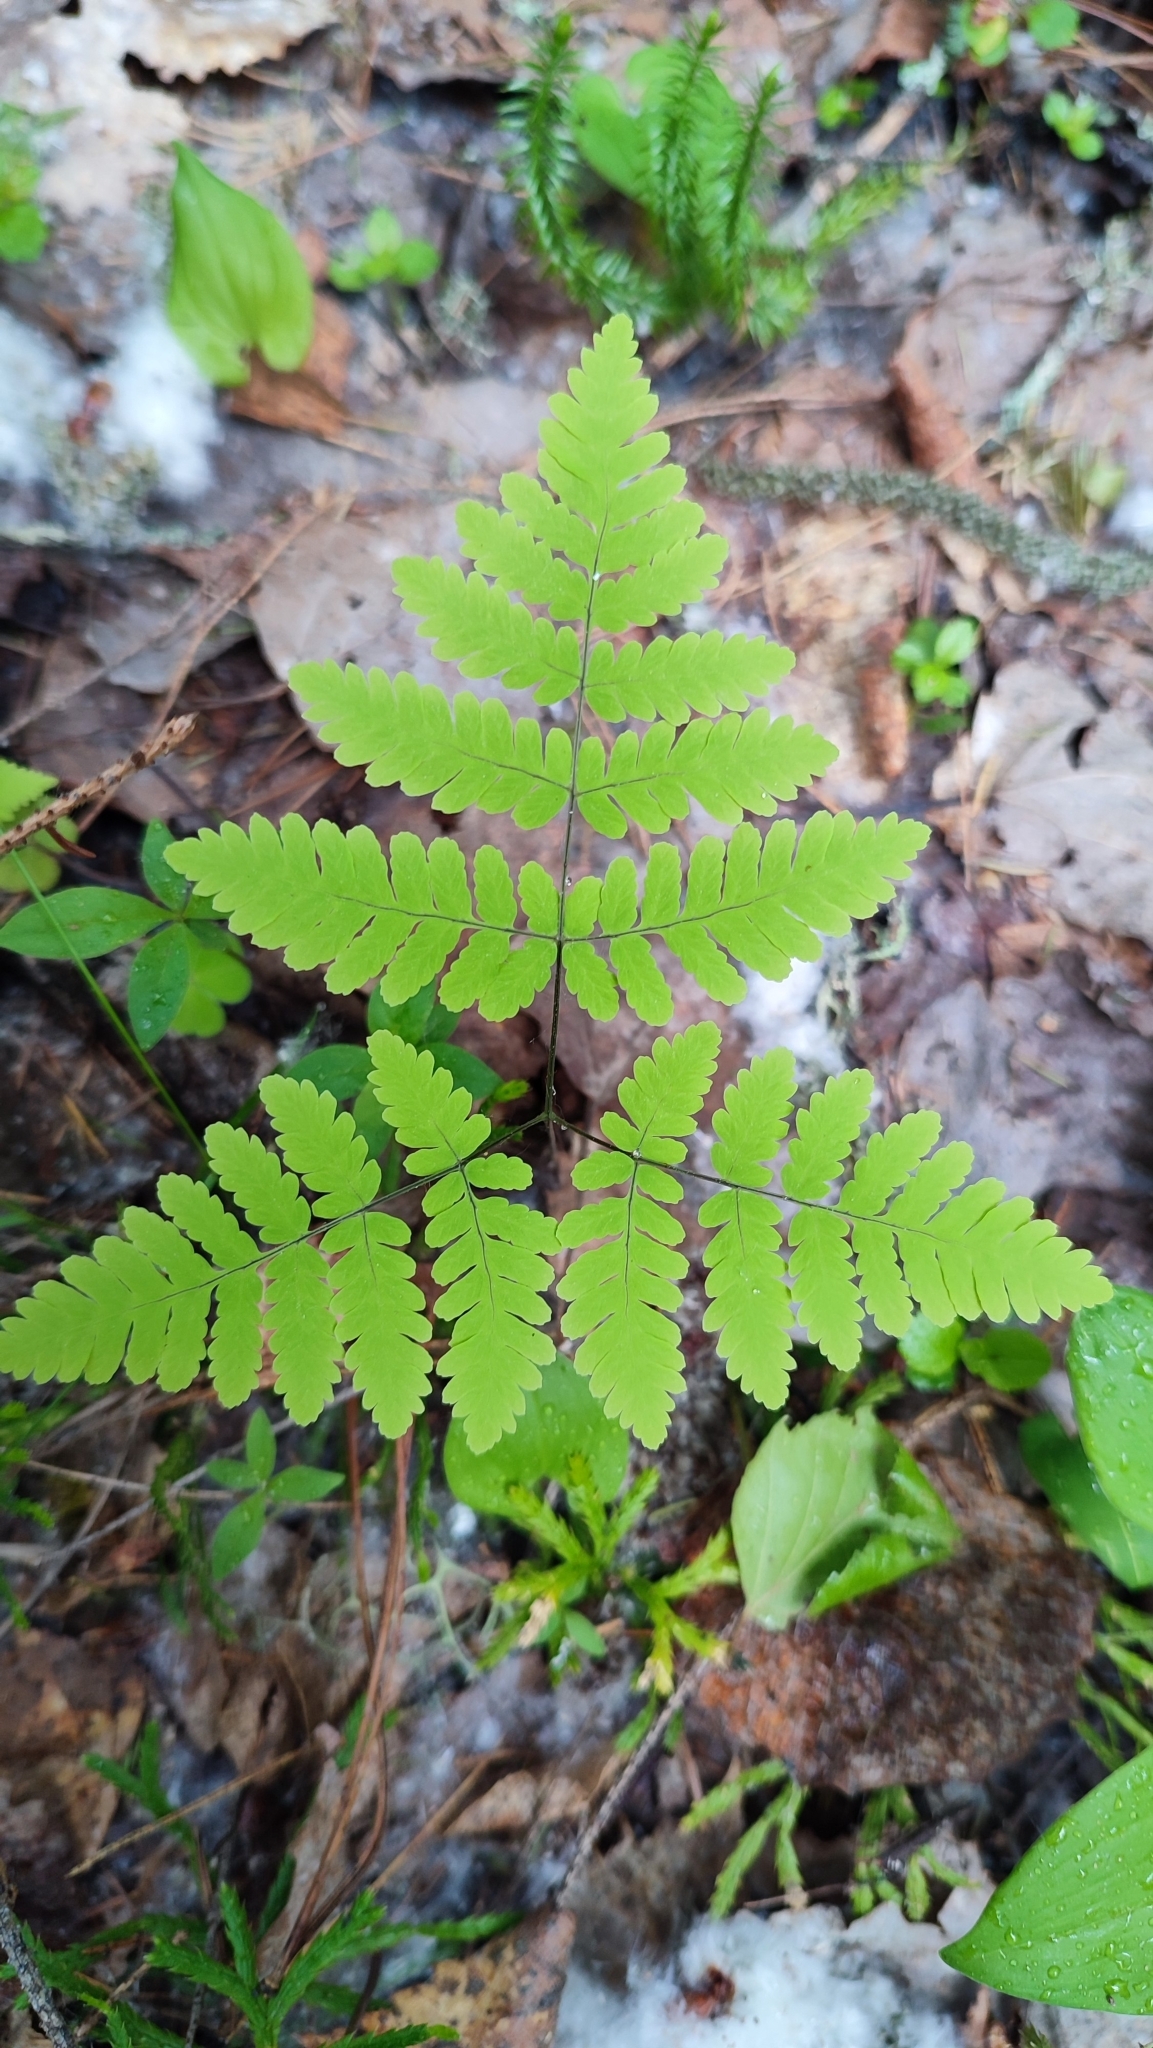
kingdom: Plantae
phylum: Tracheophyta
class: Polypodiopsida
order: Polypodiales
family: Cystopteridaceae
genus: Gymnocarpium
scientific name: Gymnocarpium dryopteris
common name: Oak fern
